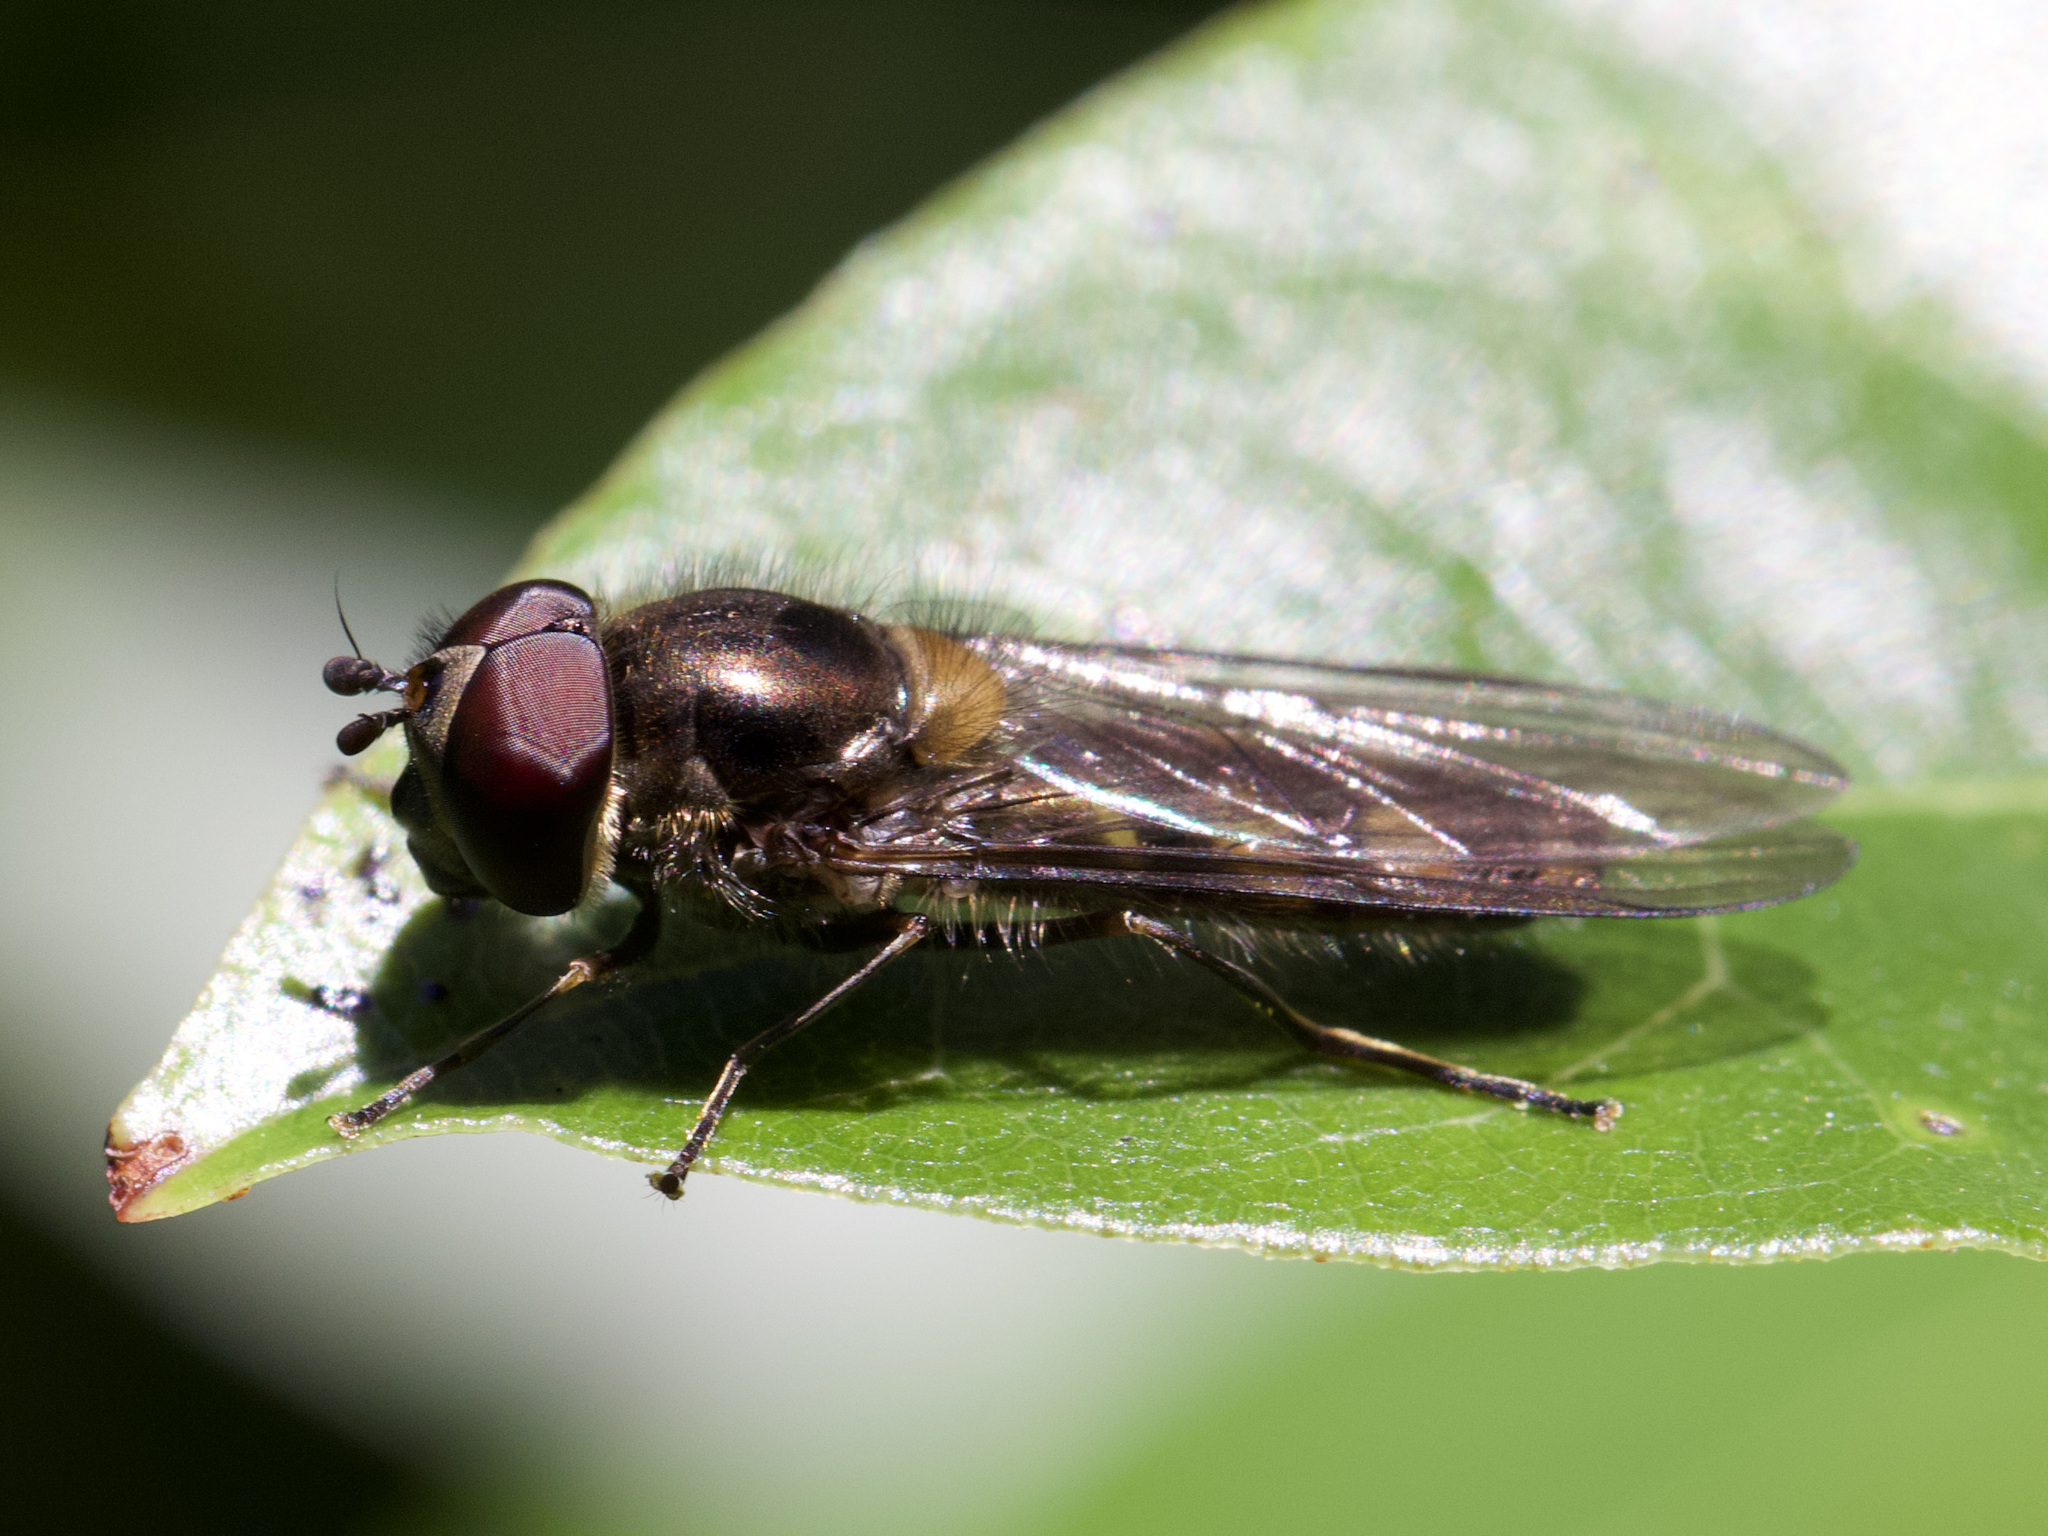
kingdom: Animalia
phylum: Arthropoda
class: Insecta
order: Diptera
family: Syrphidae
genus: Meliscaeva
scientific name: Meliscaeva auricollis
